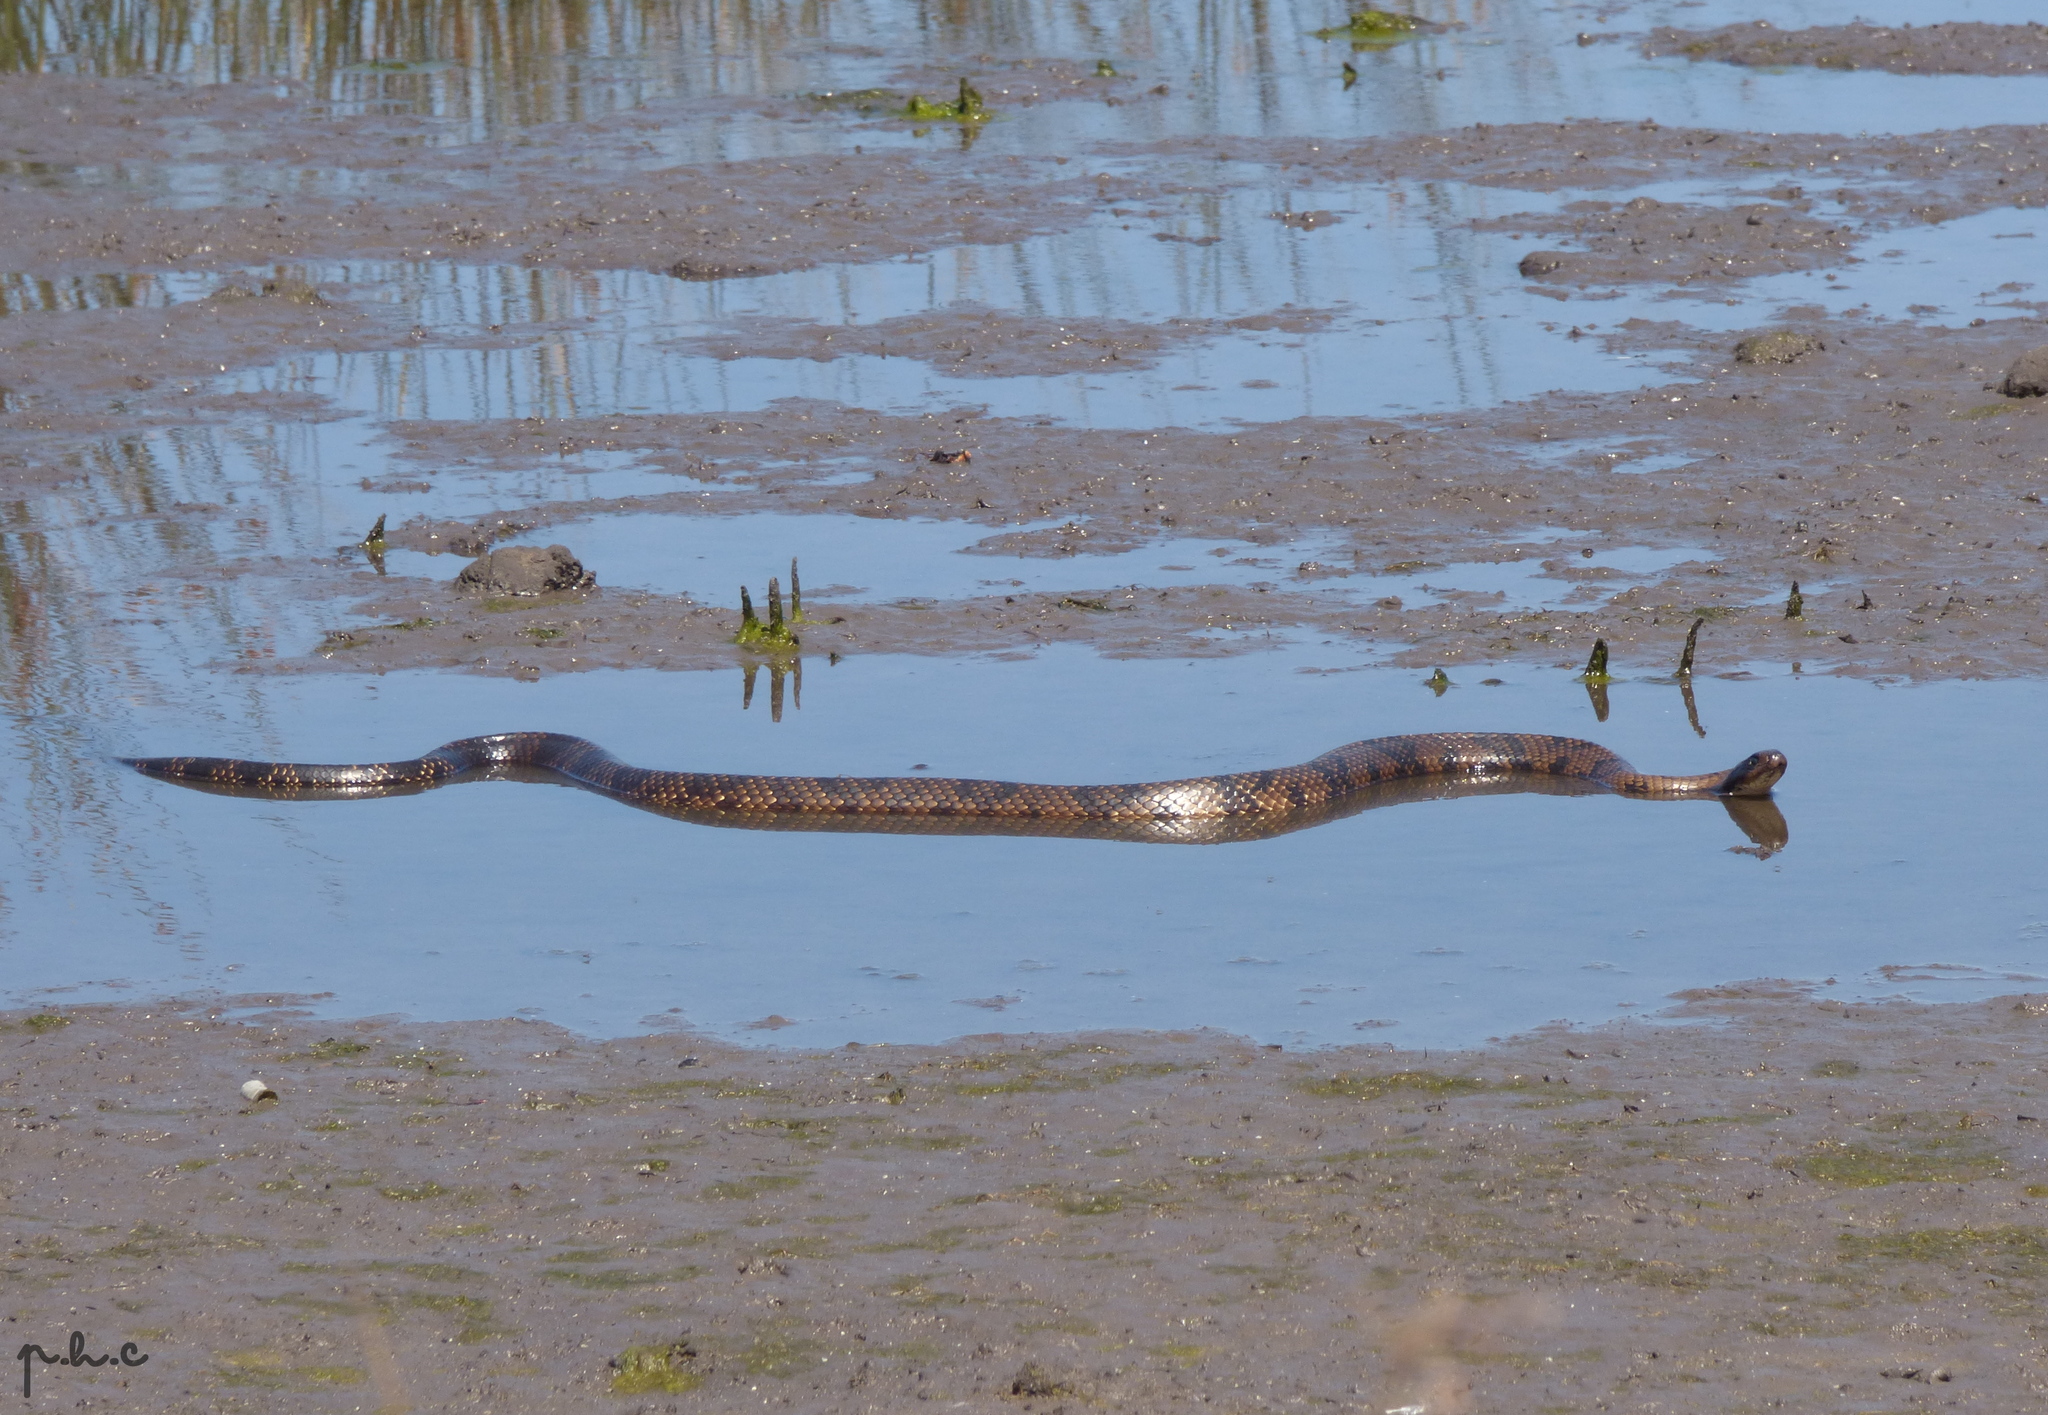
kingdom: Animalia
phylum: Chordata
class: Squamata
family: Colubridae
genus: Hydrodynastes
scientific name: Hydrodynastes gigas
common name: False water cobra
